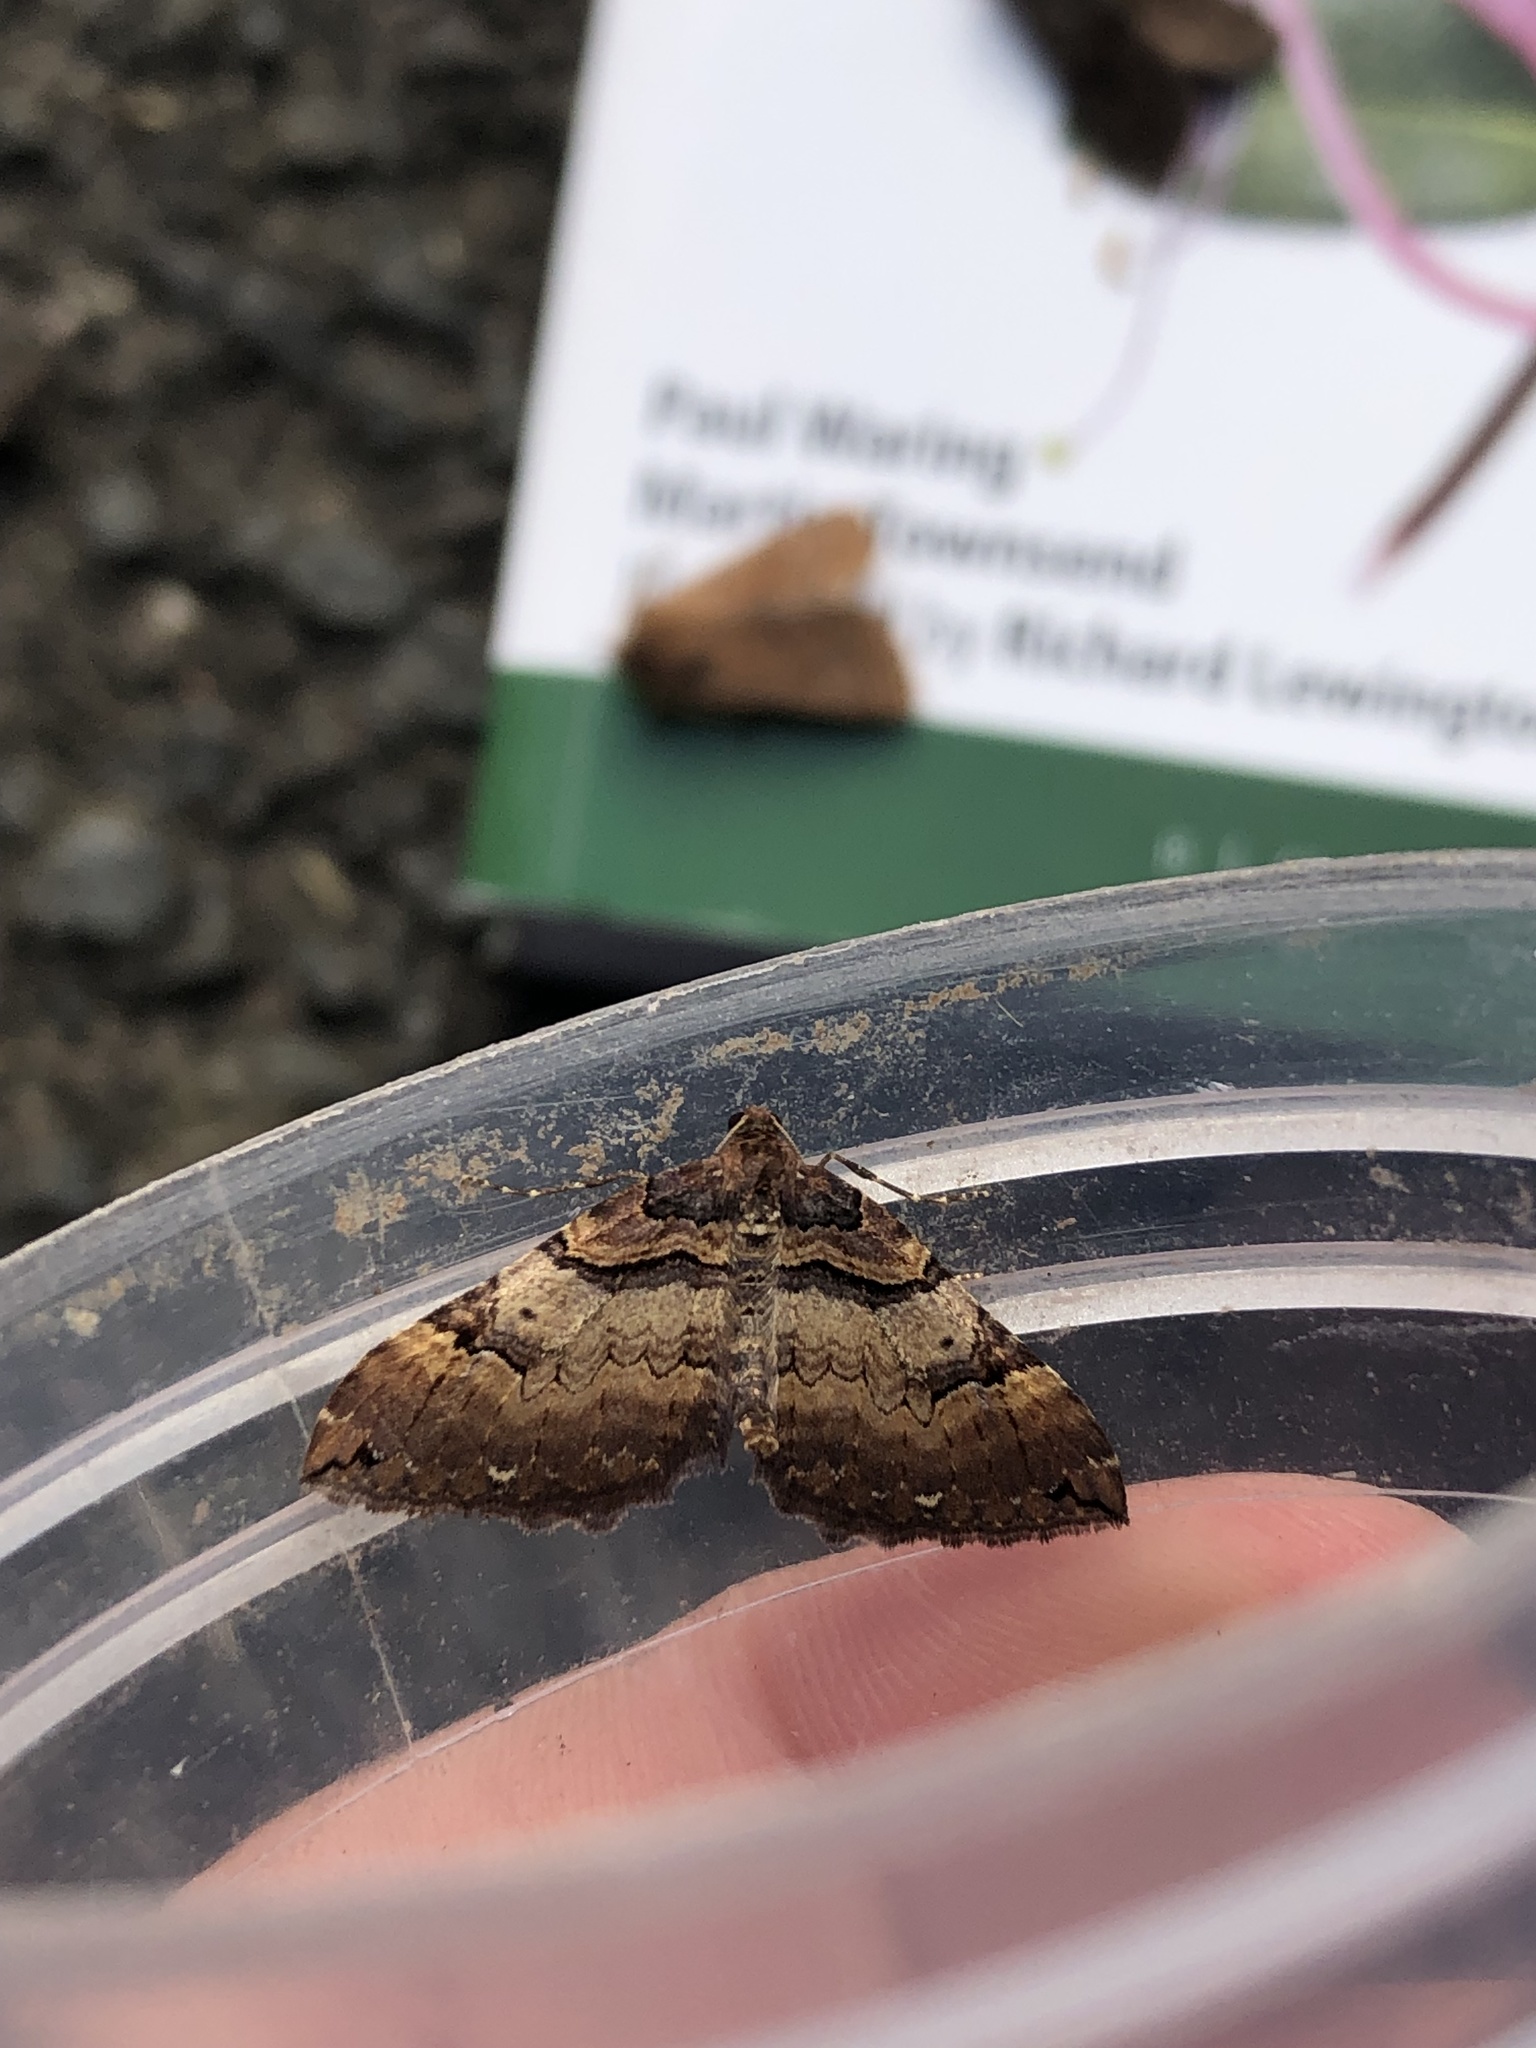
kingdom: Animalia
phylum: Arthropoda
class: Insecta
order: Lepidoptera
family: Geometridae
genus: Anticlea
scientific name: Anticlea badiata
